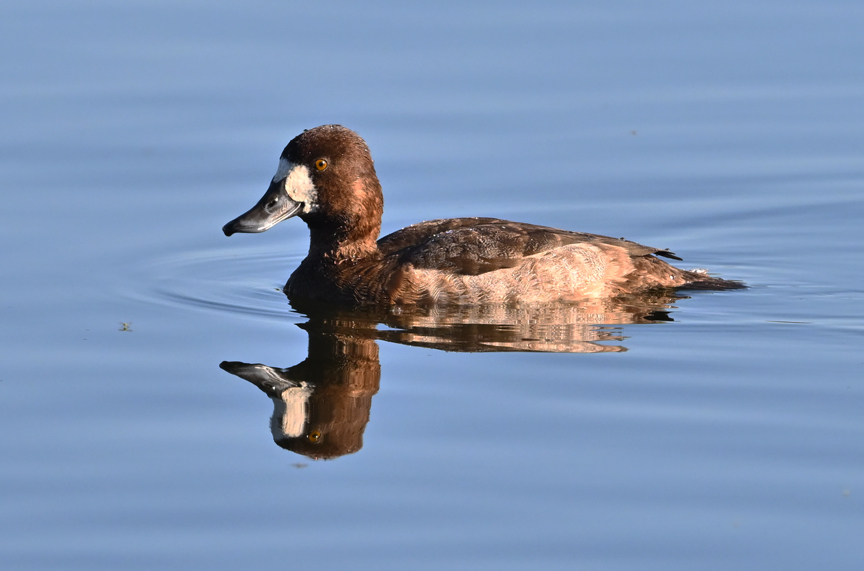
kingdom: Animalia
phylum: Chordata
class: Aves
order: Anseriformes
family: Anatidae
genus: Aythya
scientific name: Aythya marila
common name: Greater scaup
